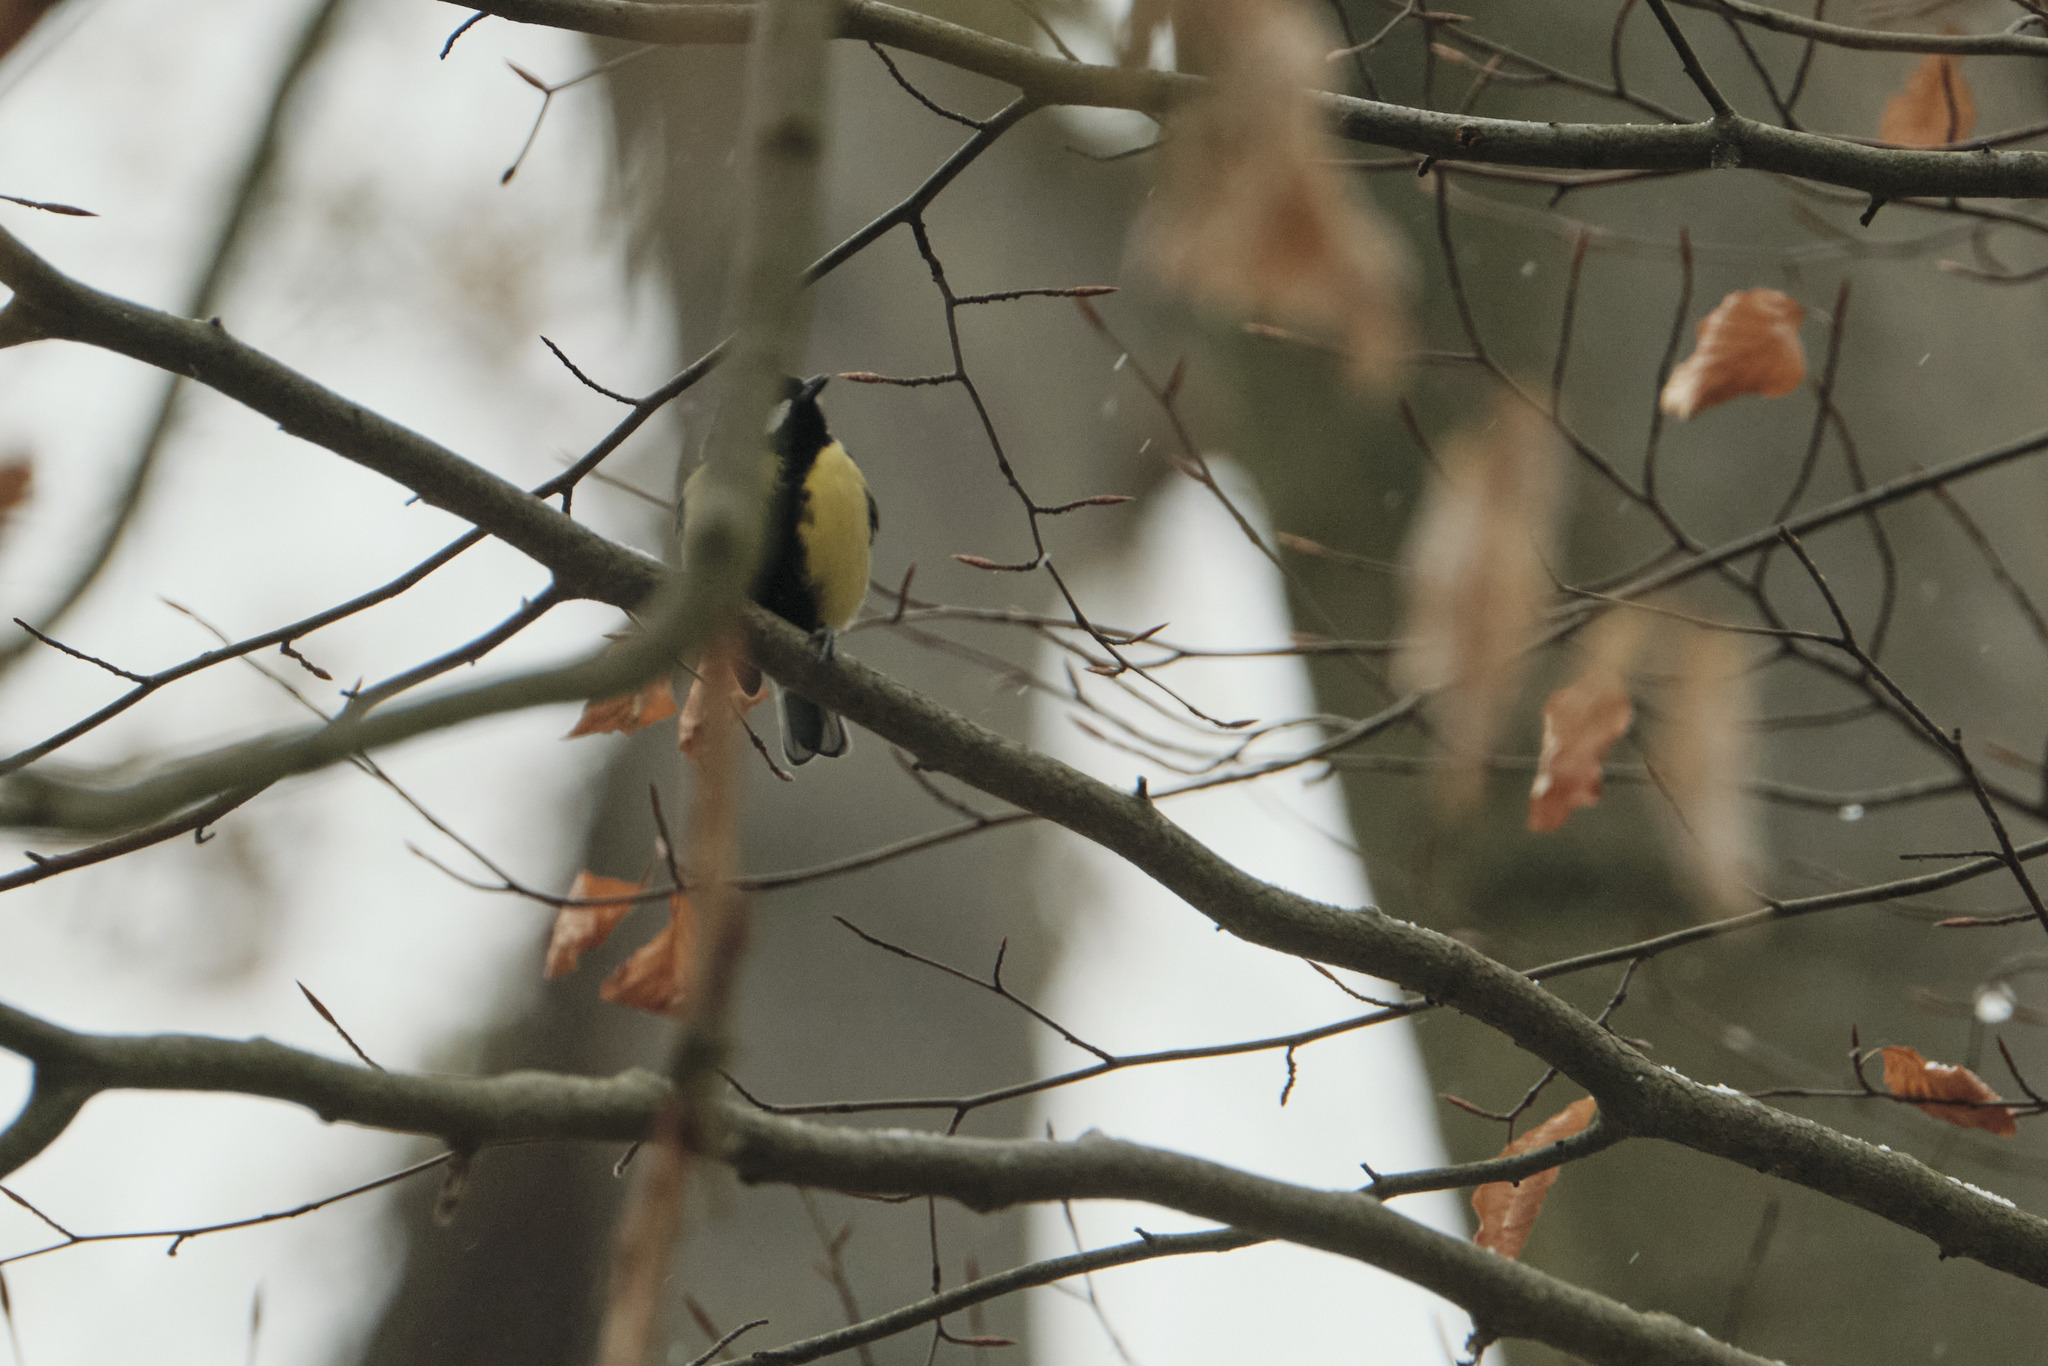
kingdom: Animalia
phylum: Chordata
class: Aves
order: Passeriformes
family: Paridae
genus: Parus
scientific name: Parus major
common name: Great tit
